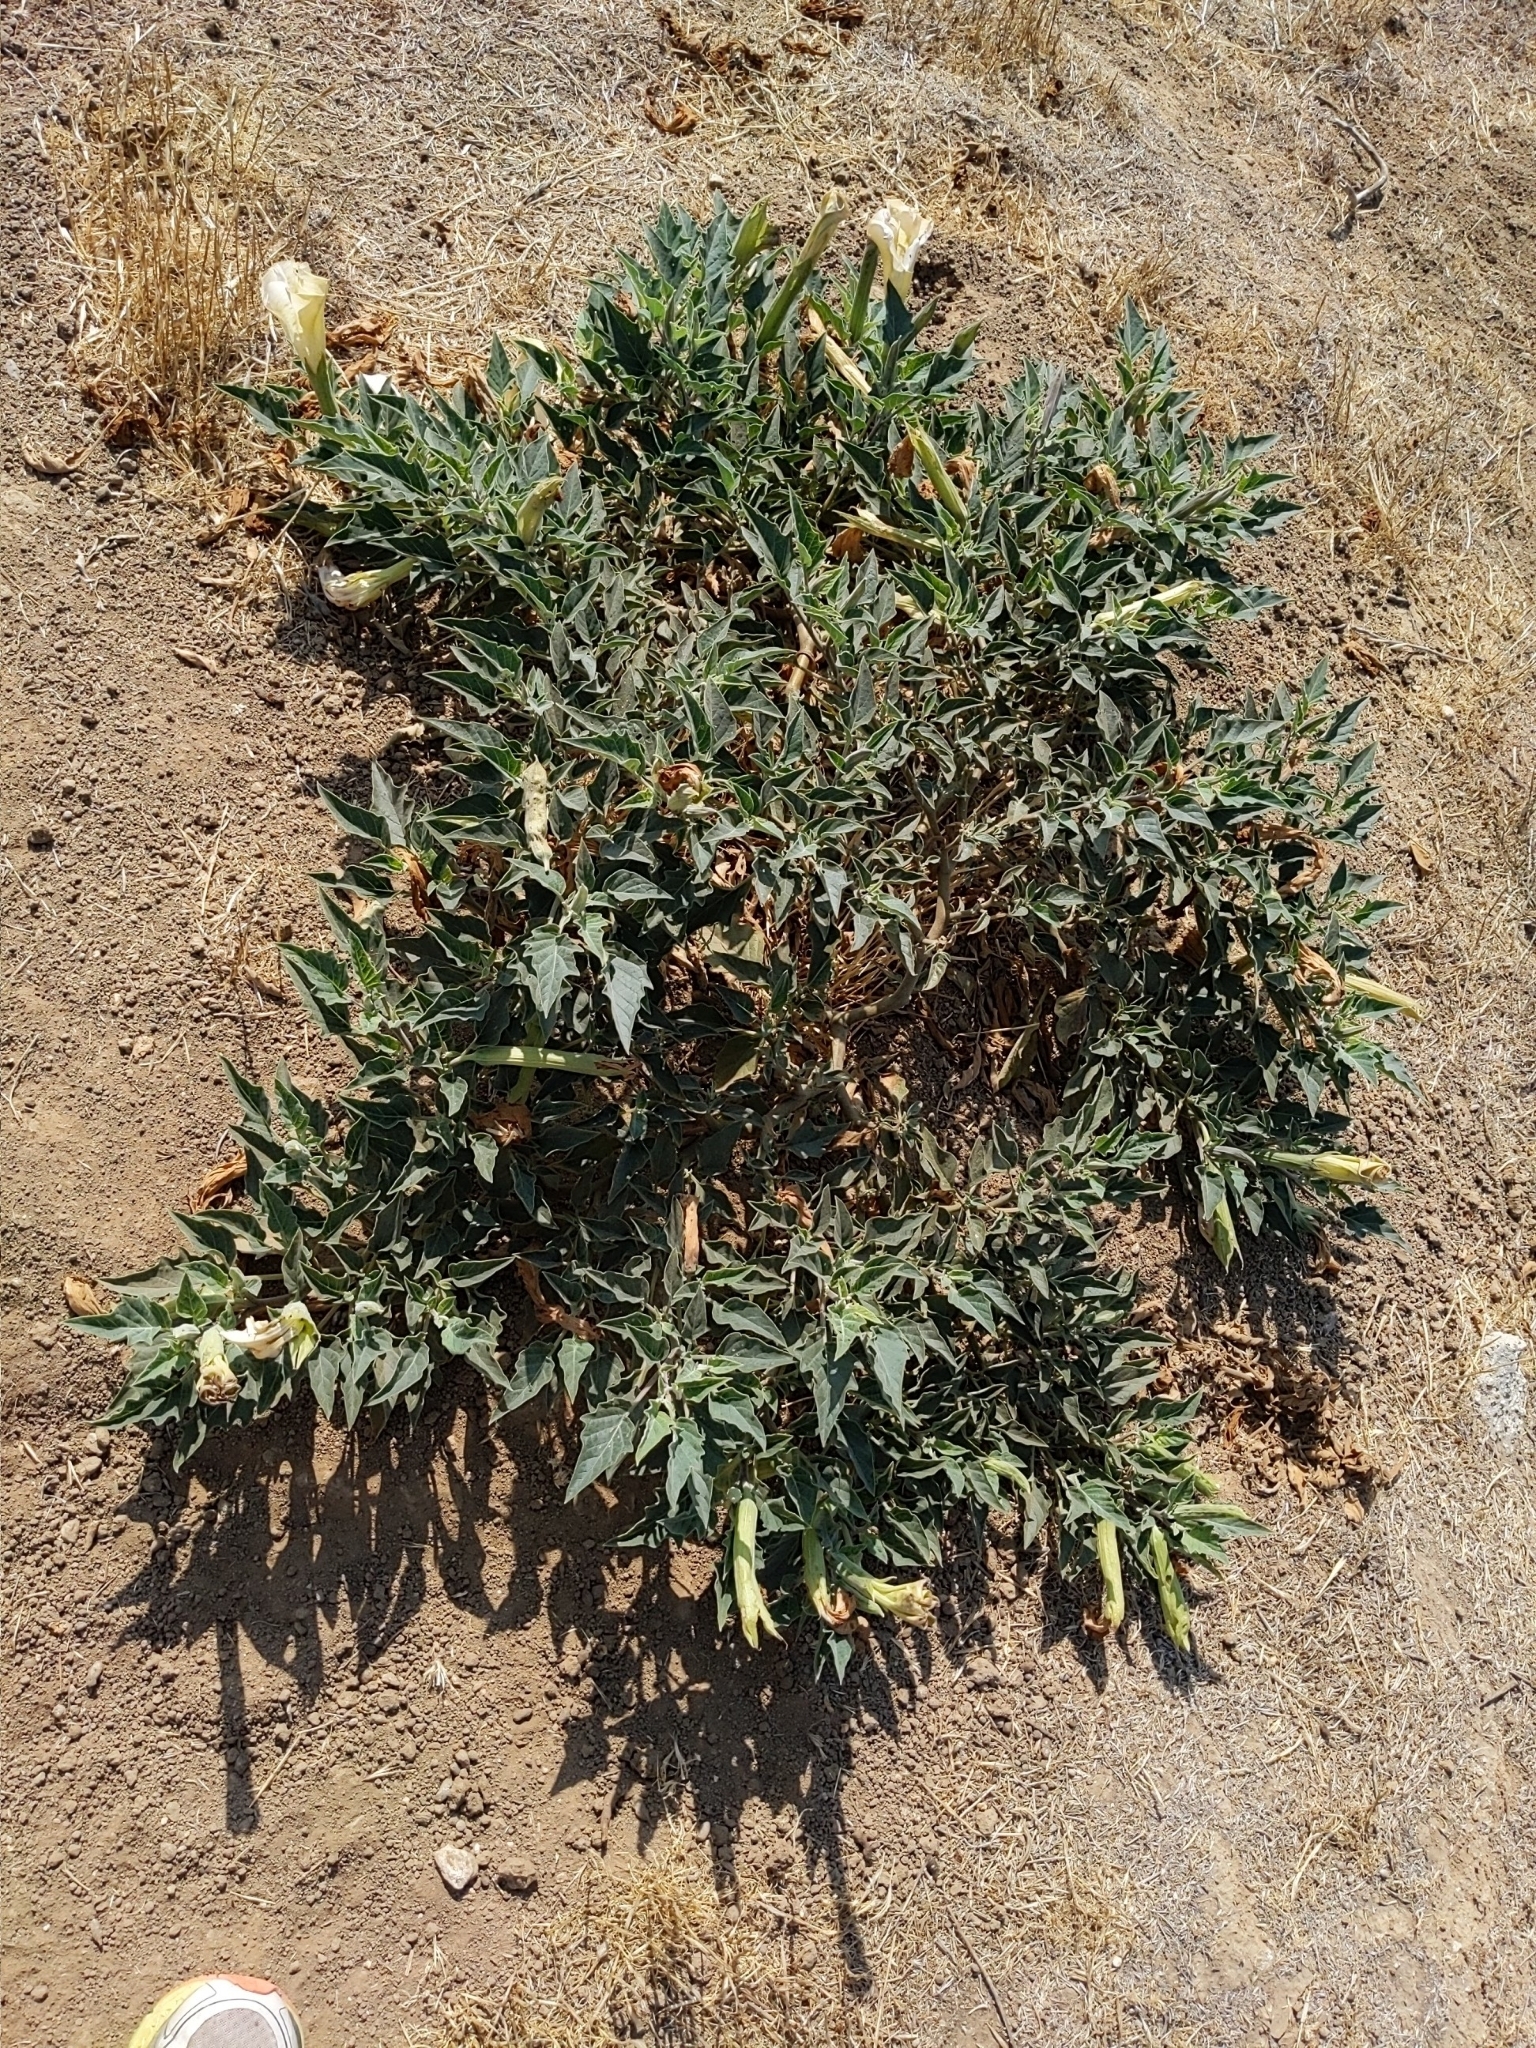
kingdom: Plantae
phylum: Tracheophyta
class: Magnoliopsida
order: Solanales
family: Solanaceae
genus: Datura
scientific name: Datura wrightii
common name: Sacred thorn-apple
